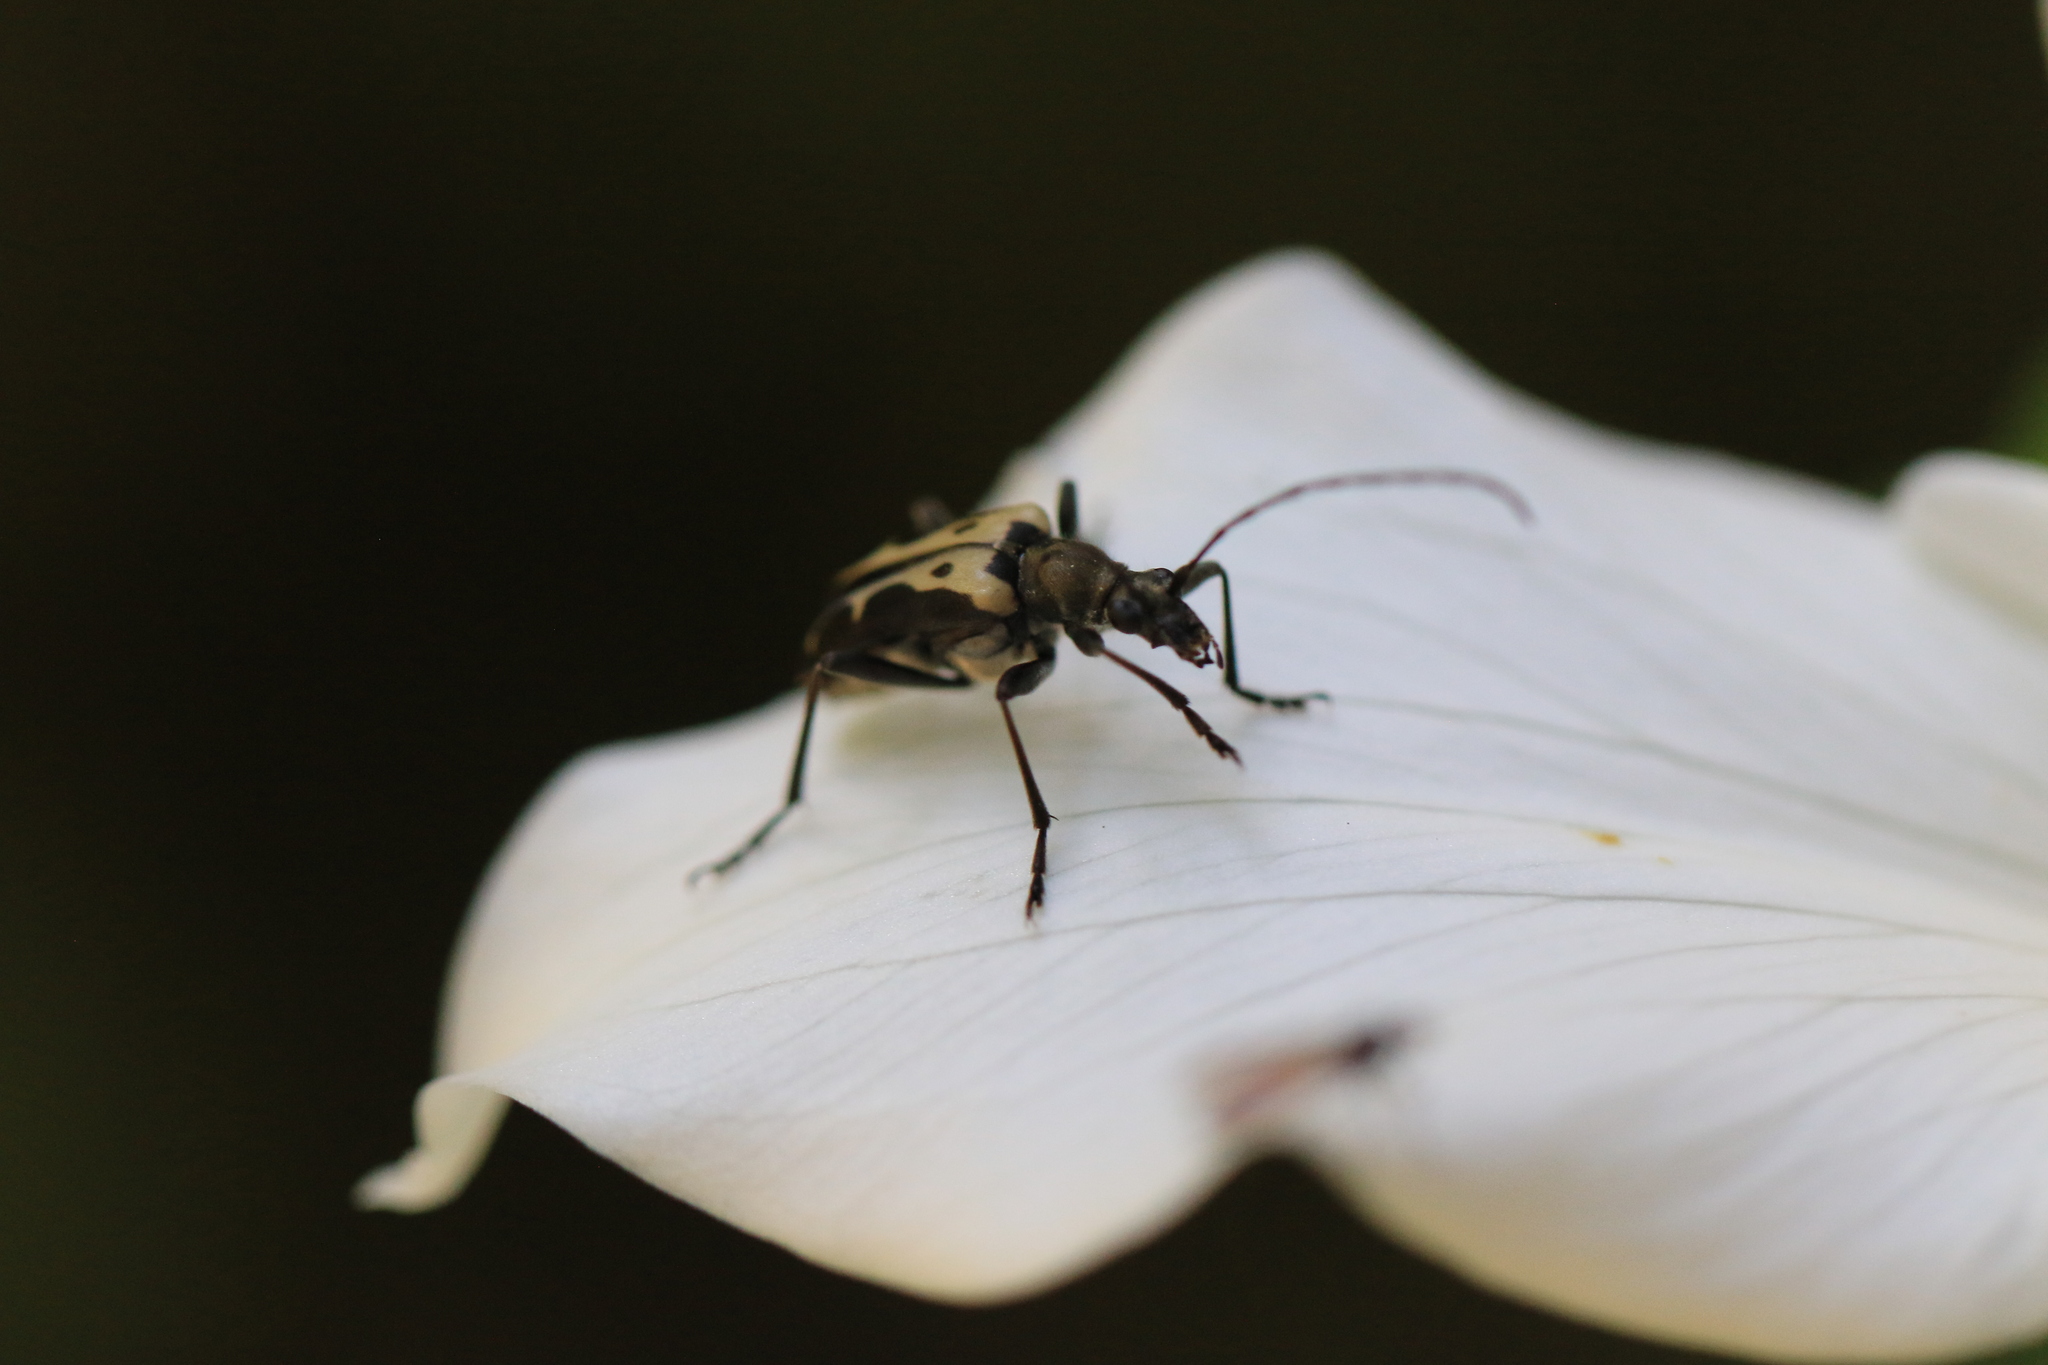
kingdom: Animalia
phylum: Arthropoda
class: Insecta
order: Coleoptera
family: Cerambycidae
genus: Evodinus
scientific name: Evodinus monticola
